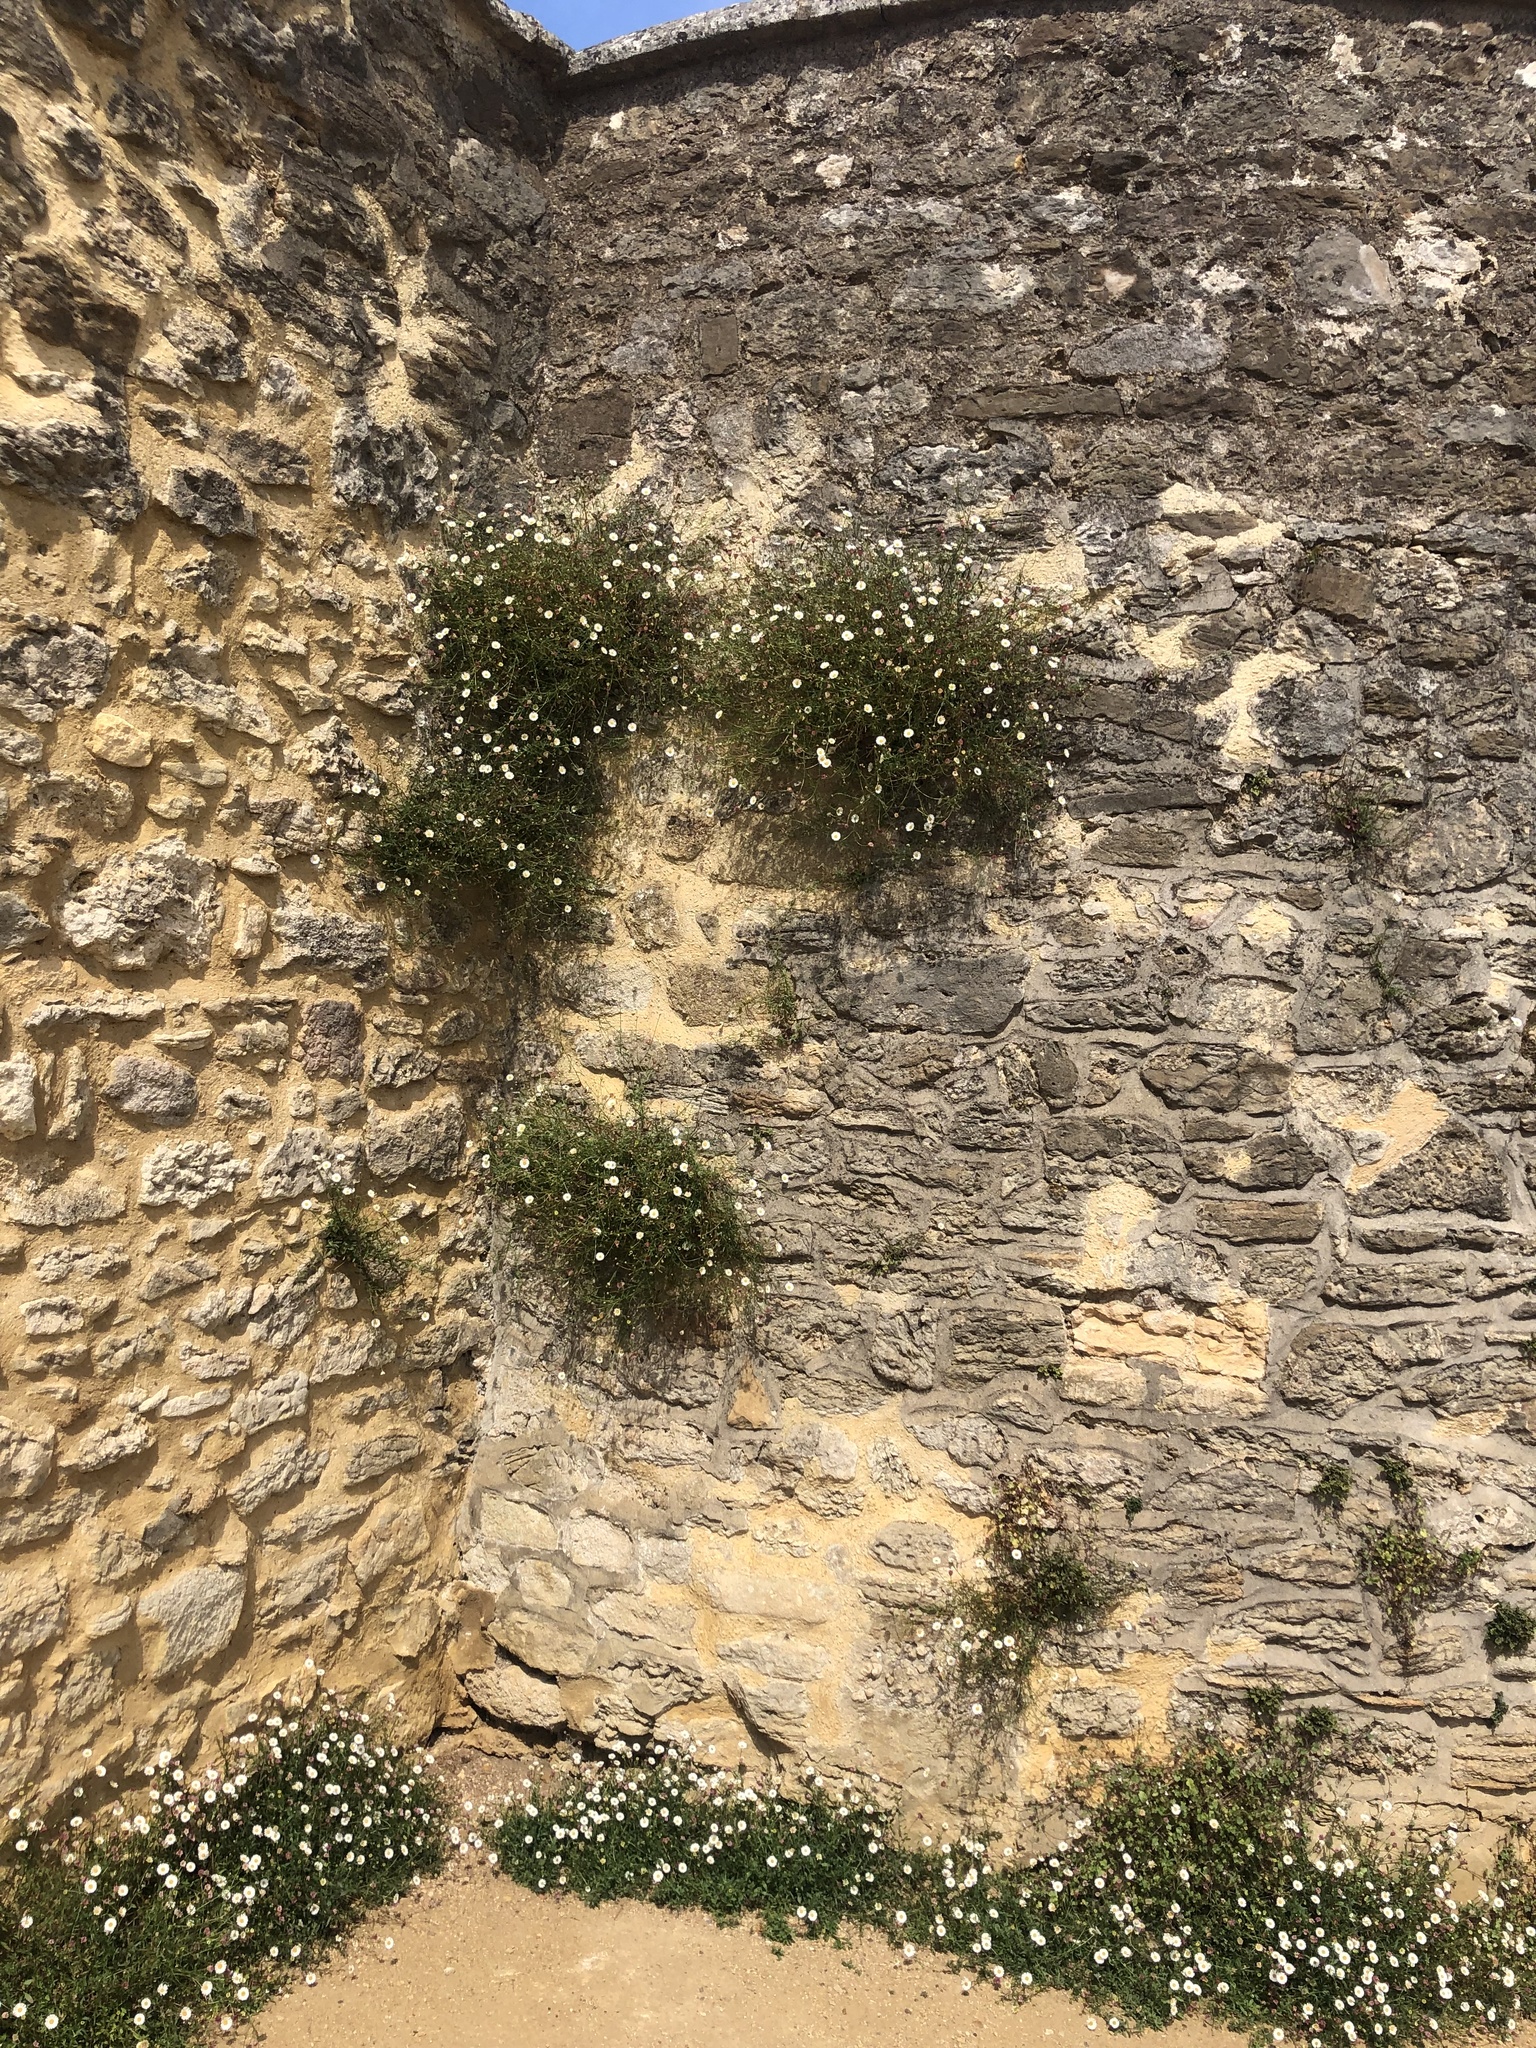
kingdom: Plantae
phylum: Tracheophyta
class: Magnoliopsida
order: Asterales
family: Asteraceae
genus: Erigeron
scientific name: Erigeron karvinskianus
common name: Mexican fleabane
